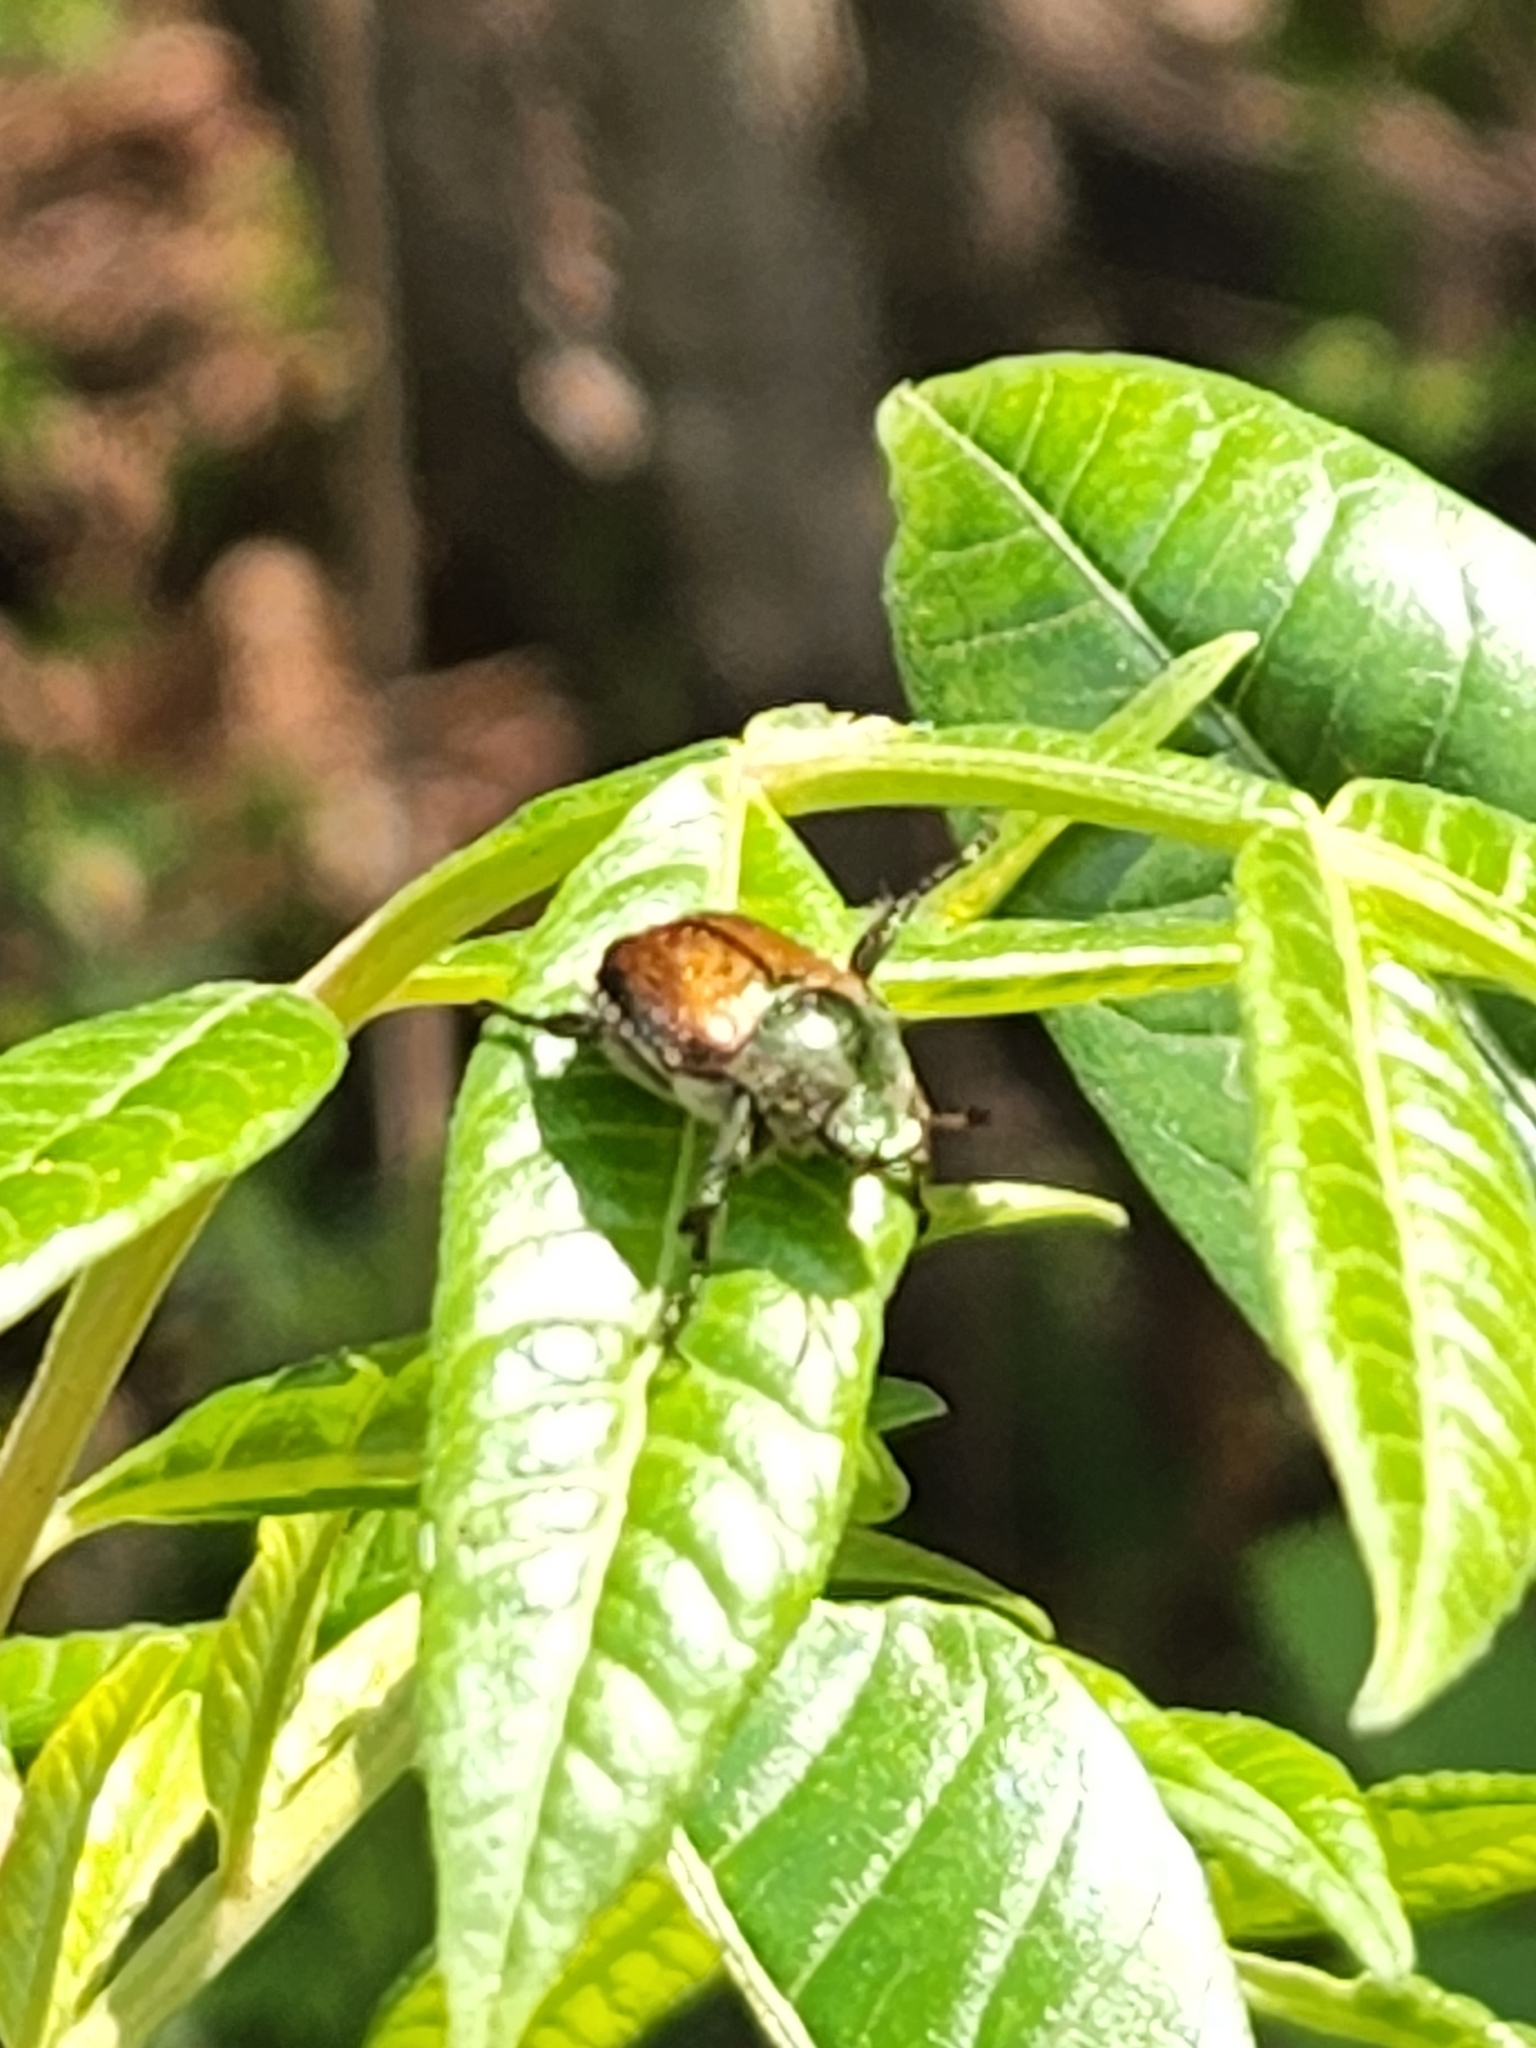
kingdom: Animalia
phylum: Arthropoda
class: Insecta
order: Coleoptera
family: Scarabaeidae
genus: Popillia
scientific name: Popillia japonica
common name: Japanese beetle
